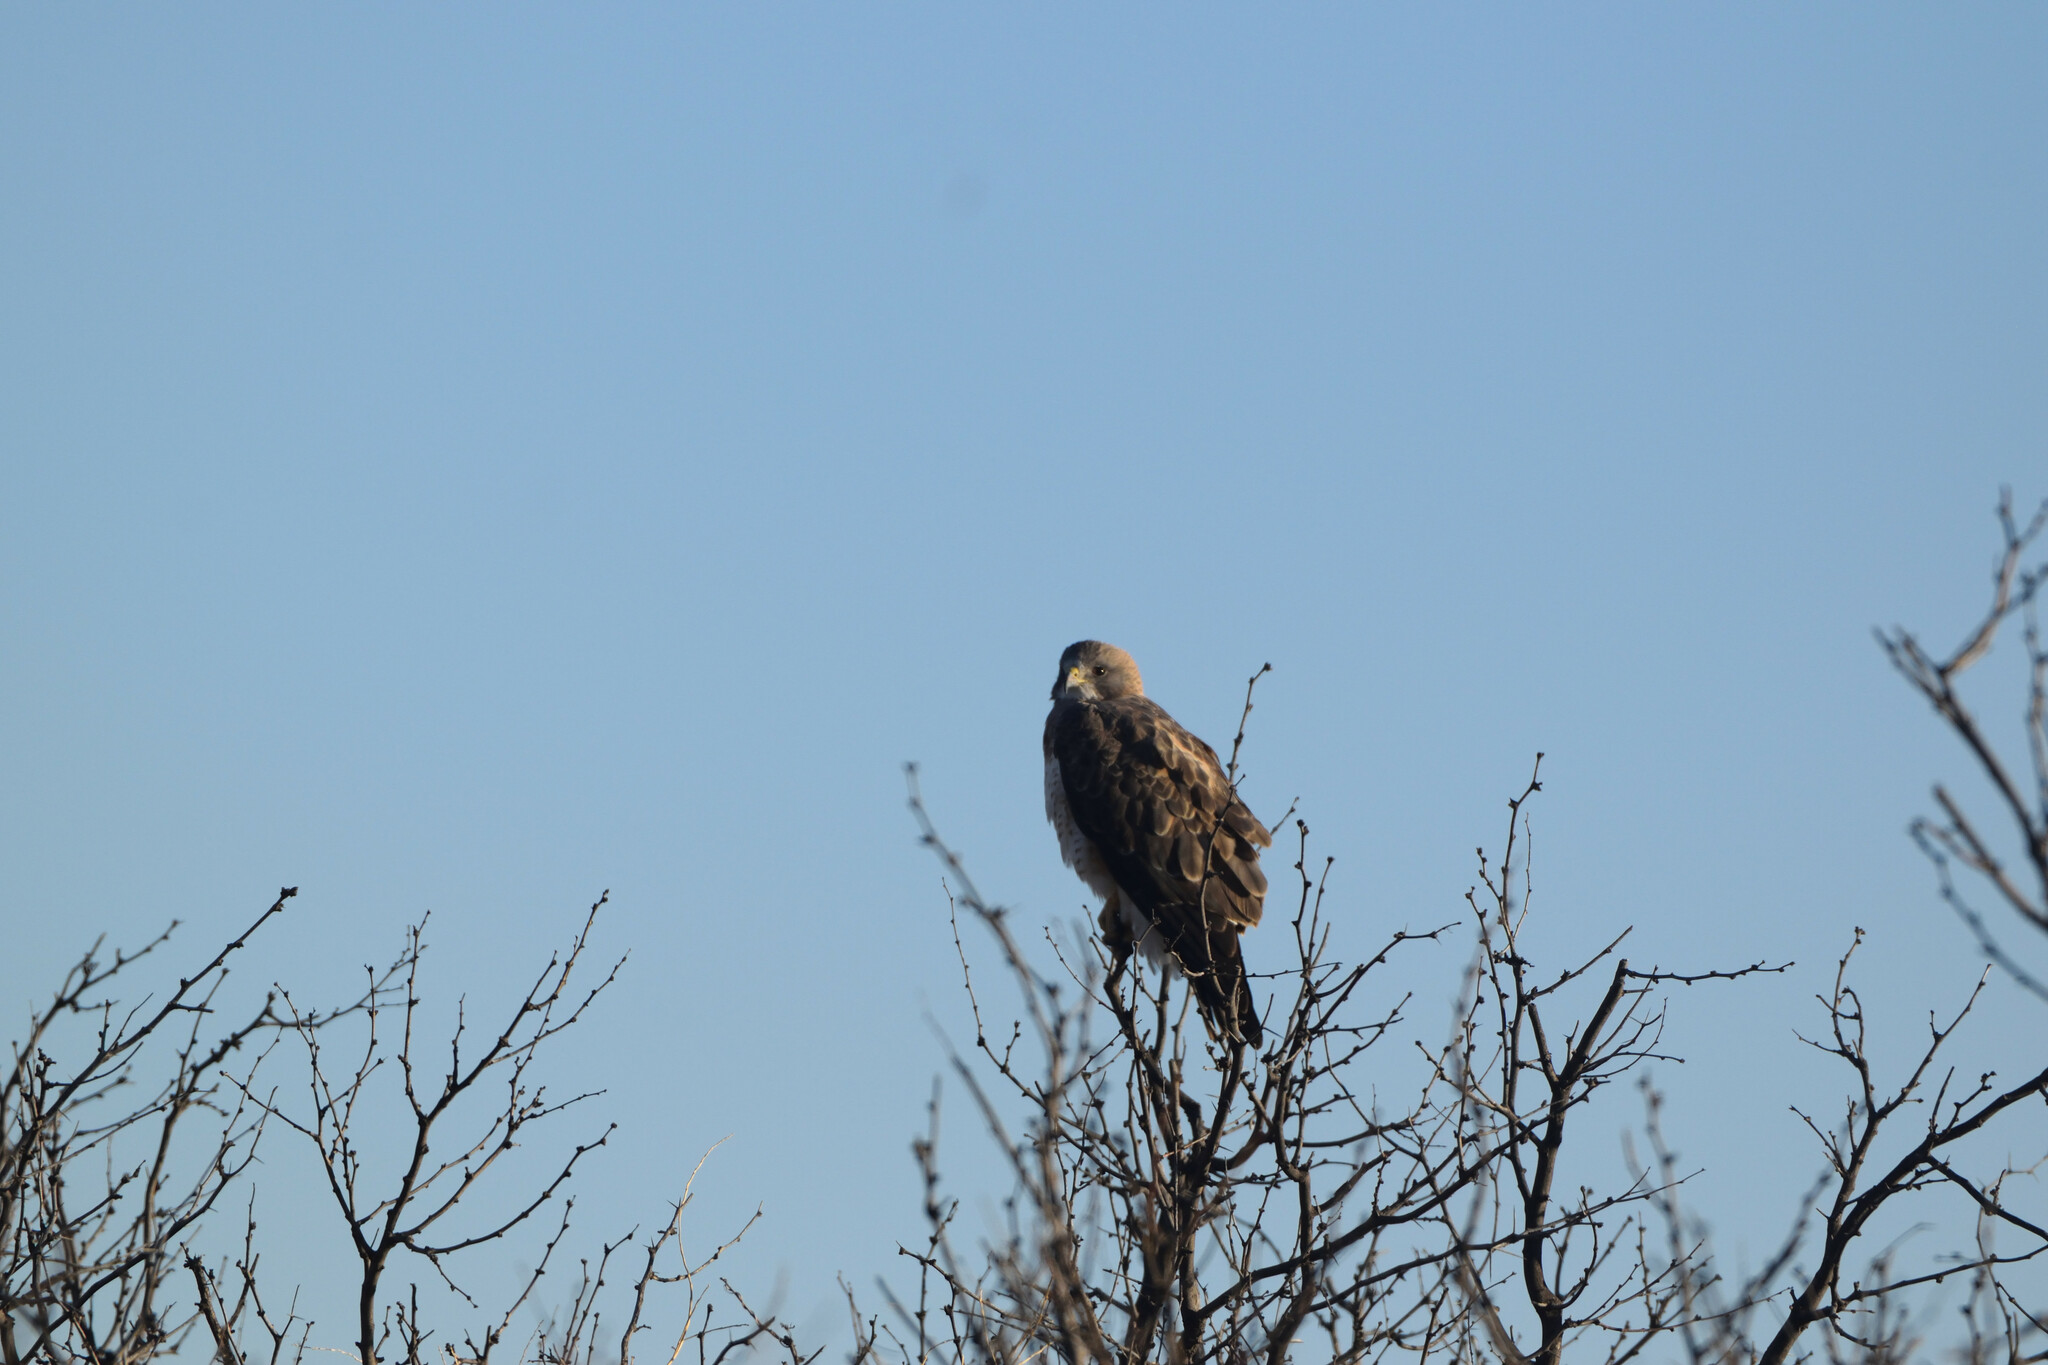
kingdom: Animalia
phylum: Chordata
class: Aves
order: Accipitriformes
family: Accipitridae
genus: Buteo
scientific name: Buteo jamaicensis
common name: Red-tailed hawk
